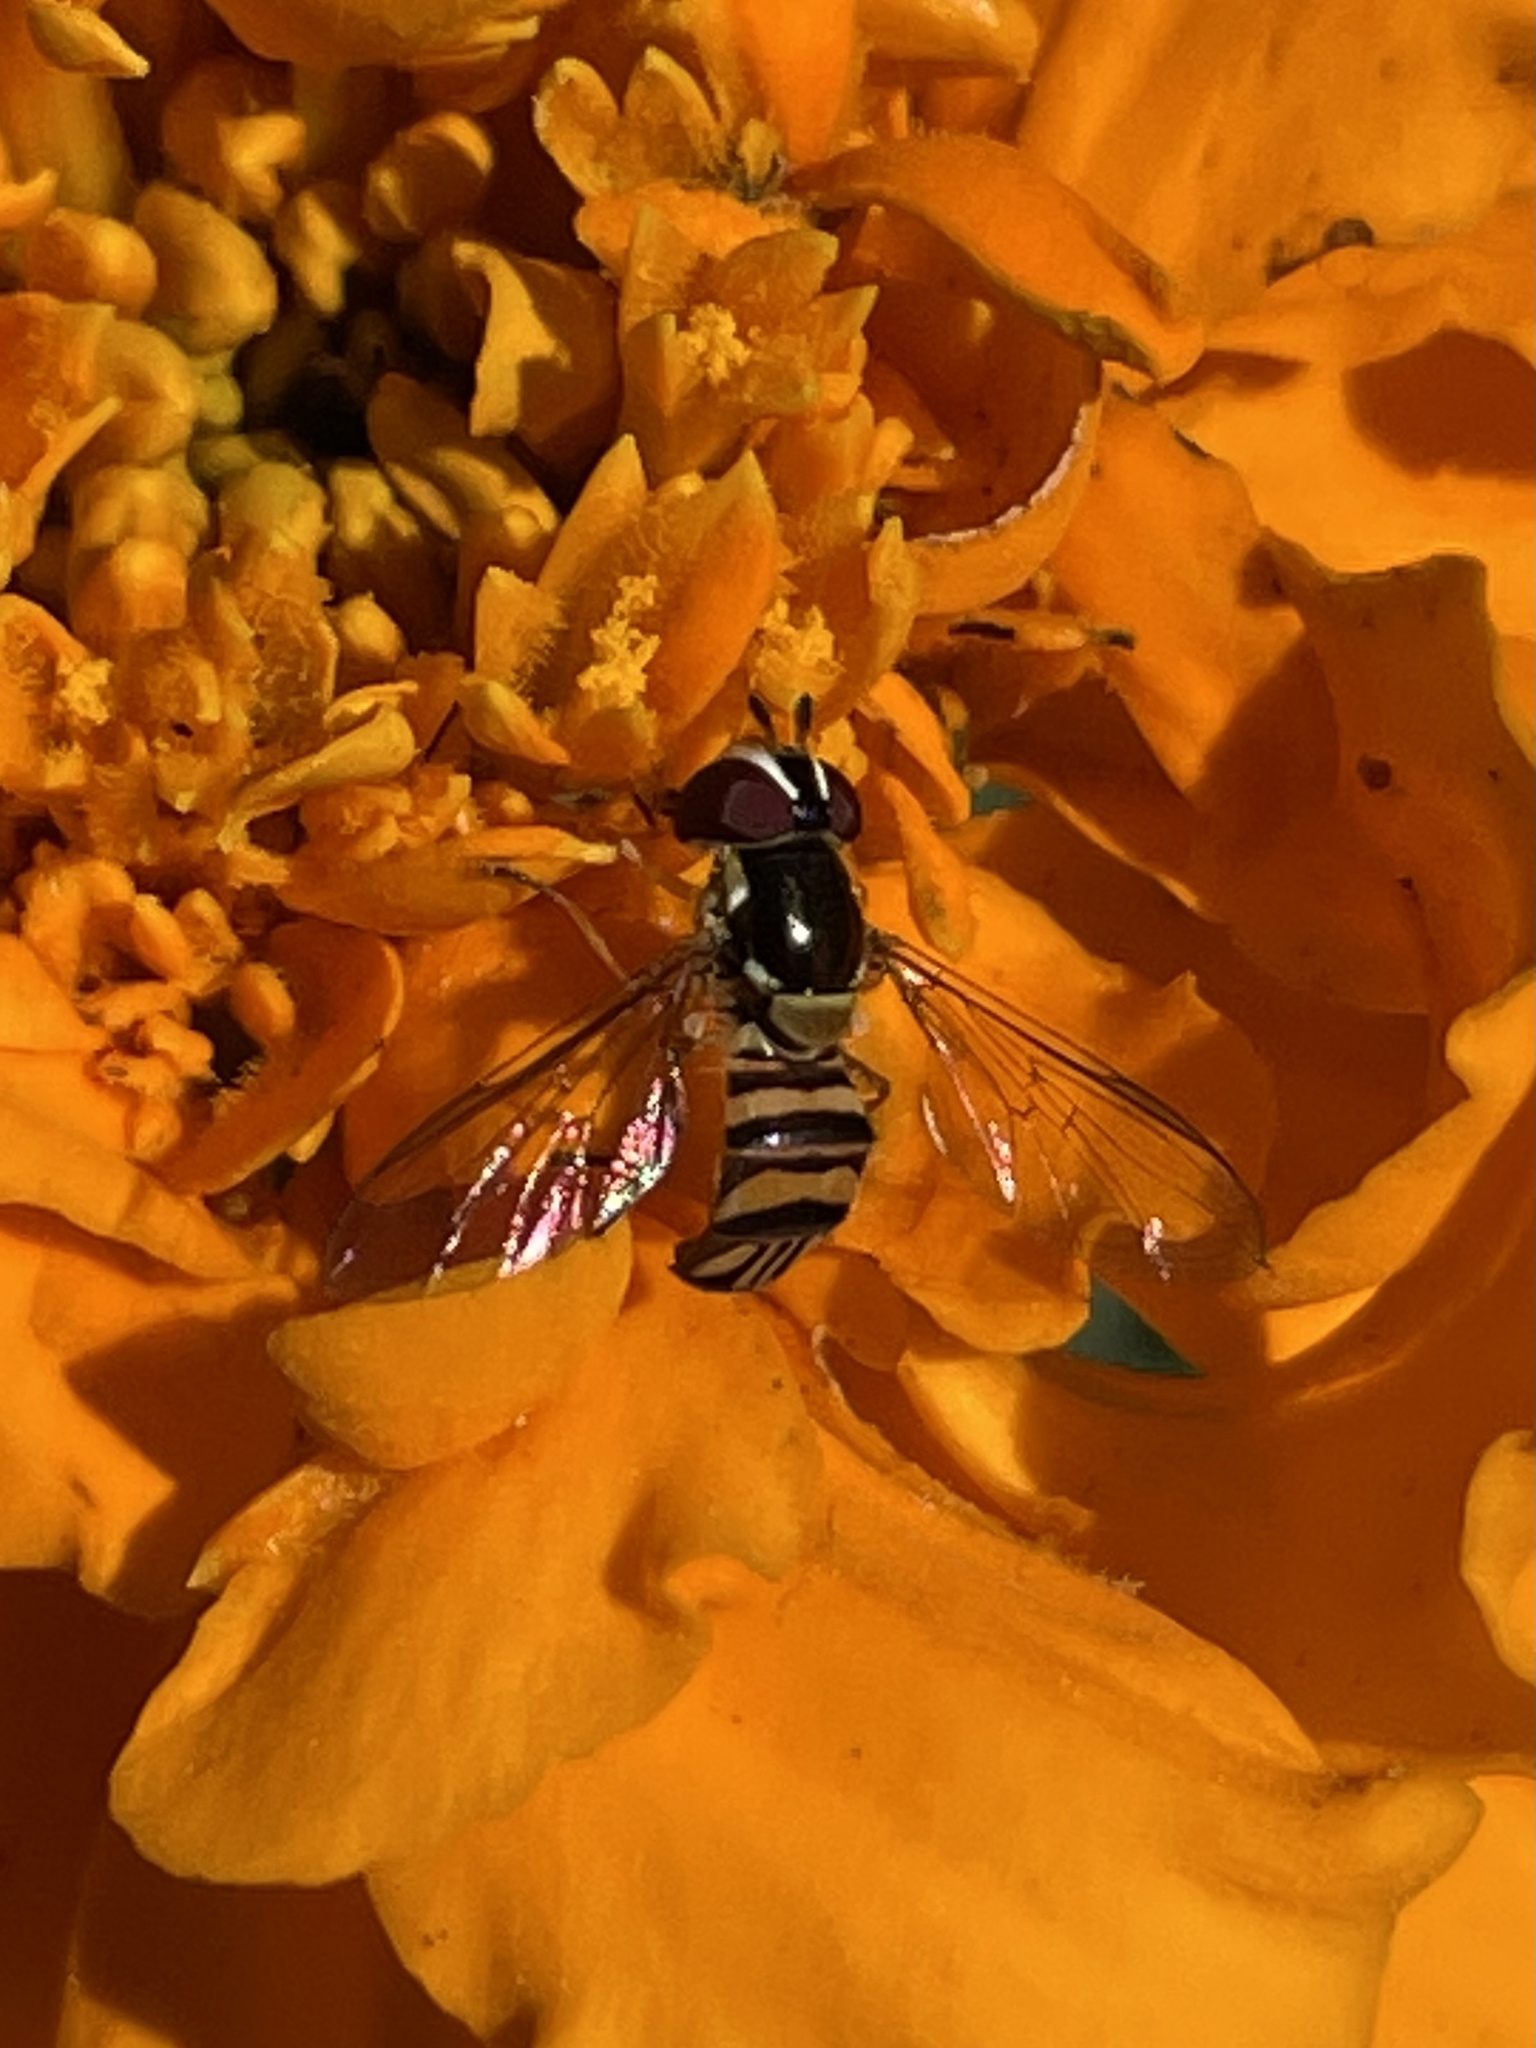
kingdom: Animalia
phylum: Arthropoda
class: Insecta
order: Diptera
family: Syrphidae
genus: Allograpta
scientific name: Allograpta obliqua
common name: Common oblique syrphid
